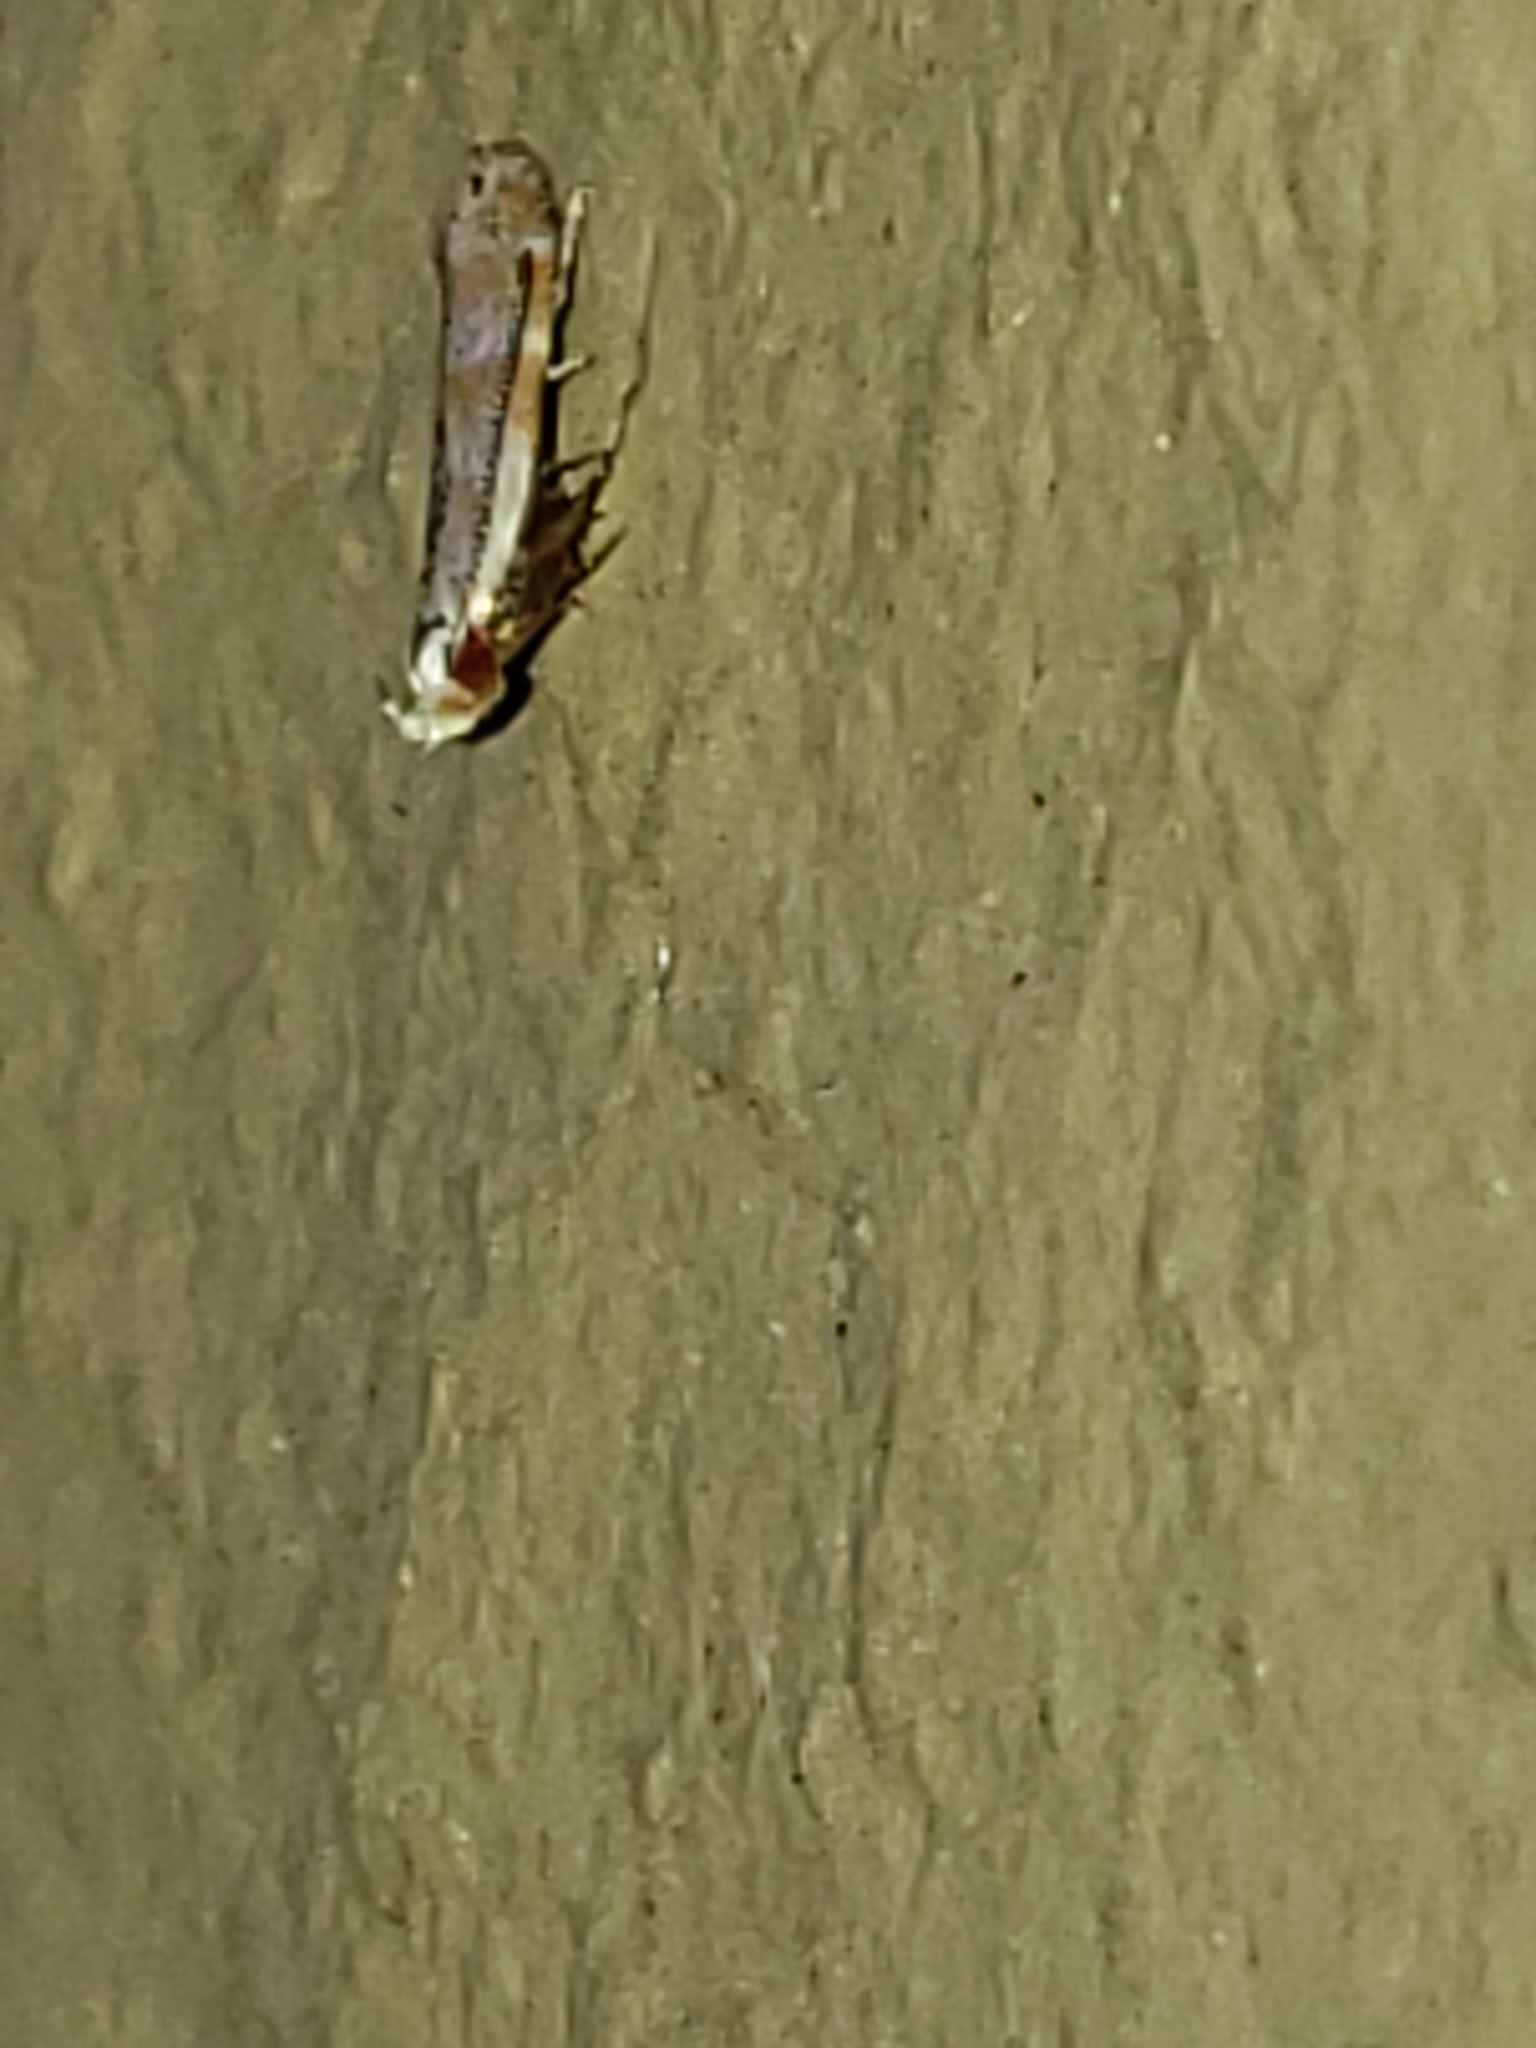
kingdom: Animalia
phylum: Arthropoda
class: Insecta
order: Lepidoptera
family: Gelechiidae
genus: Battaristis
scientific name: Battaristis vittella
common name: Orange stripe-backed moth
